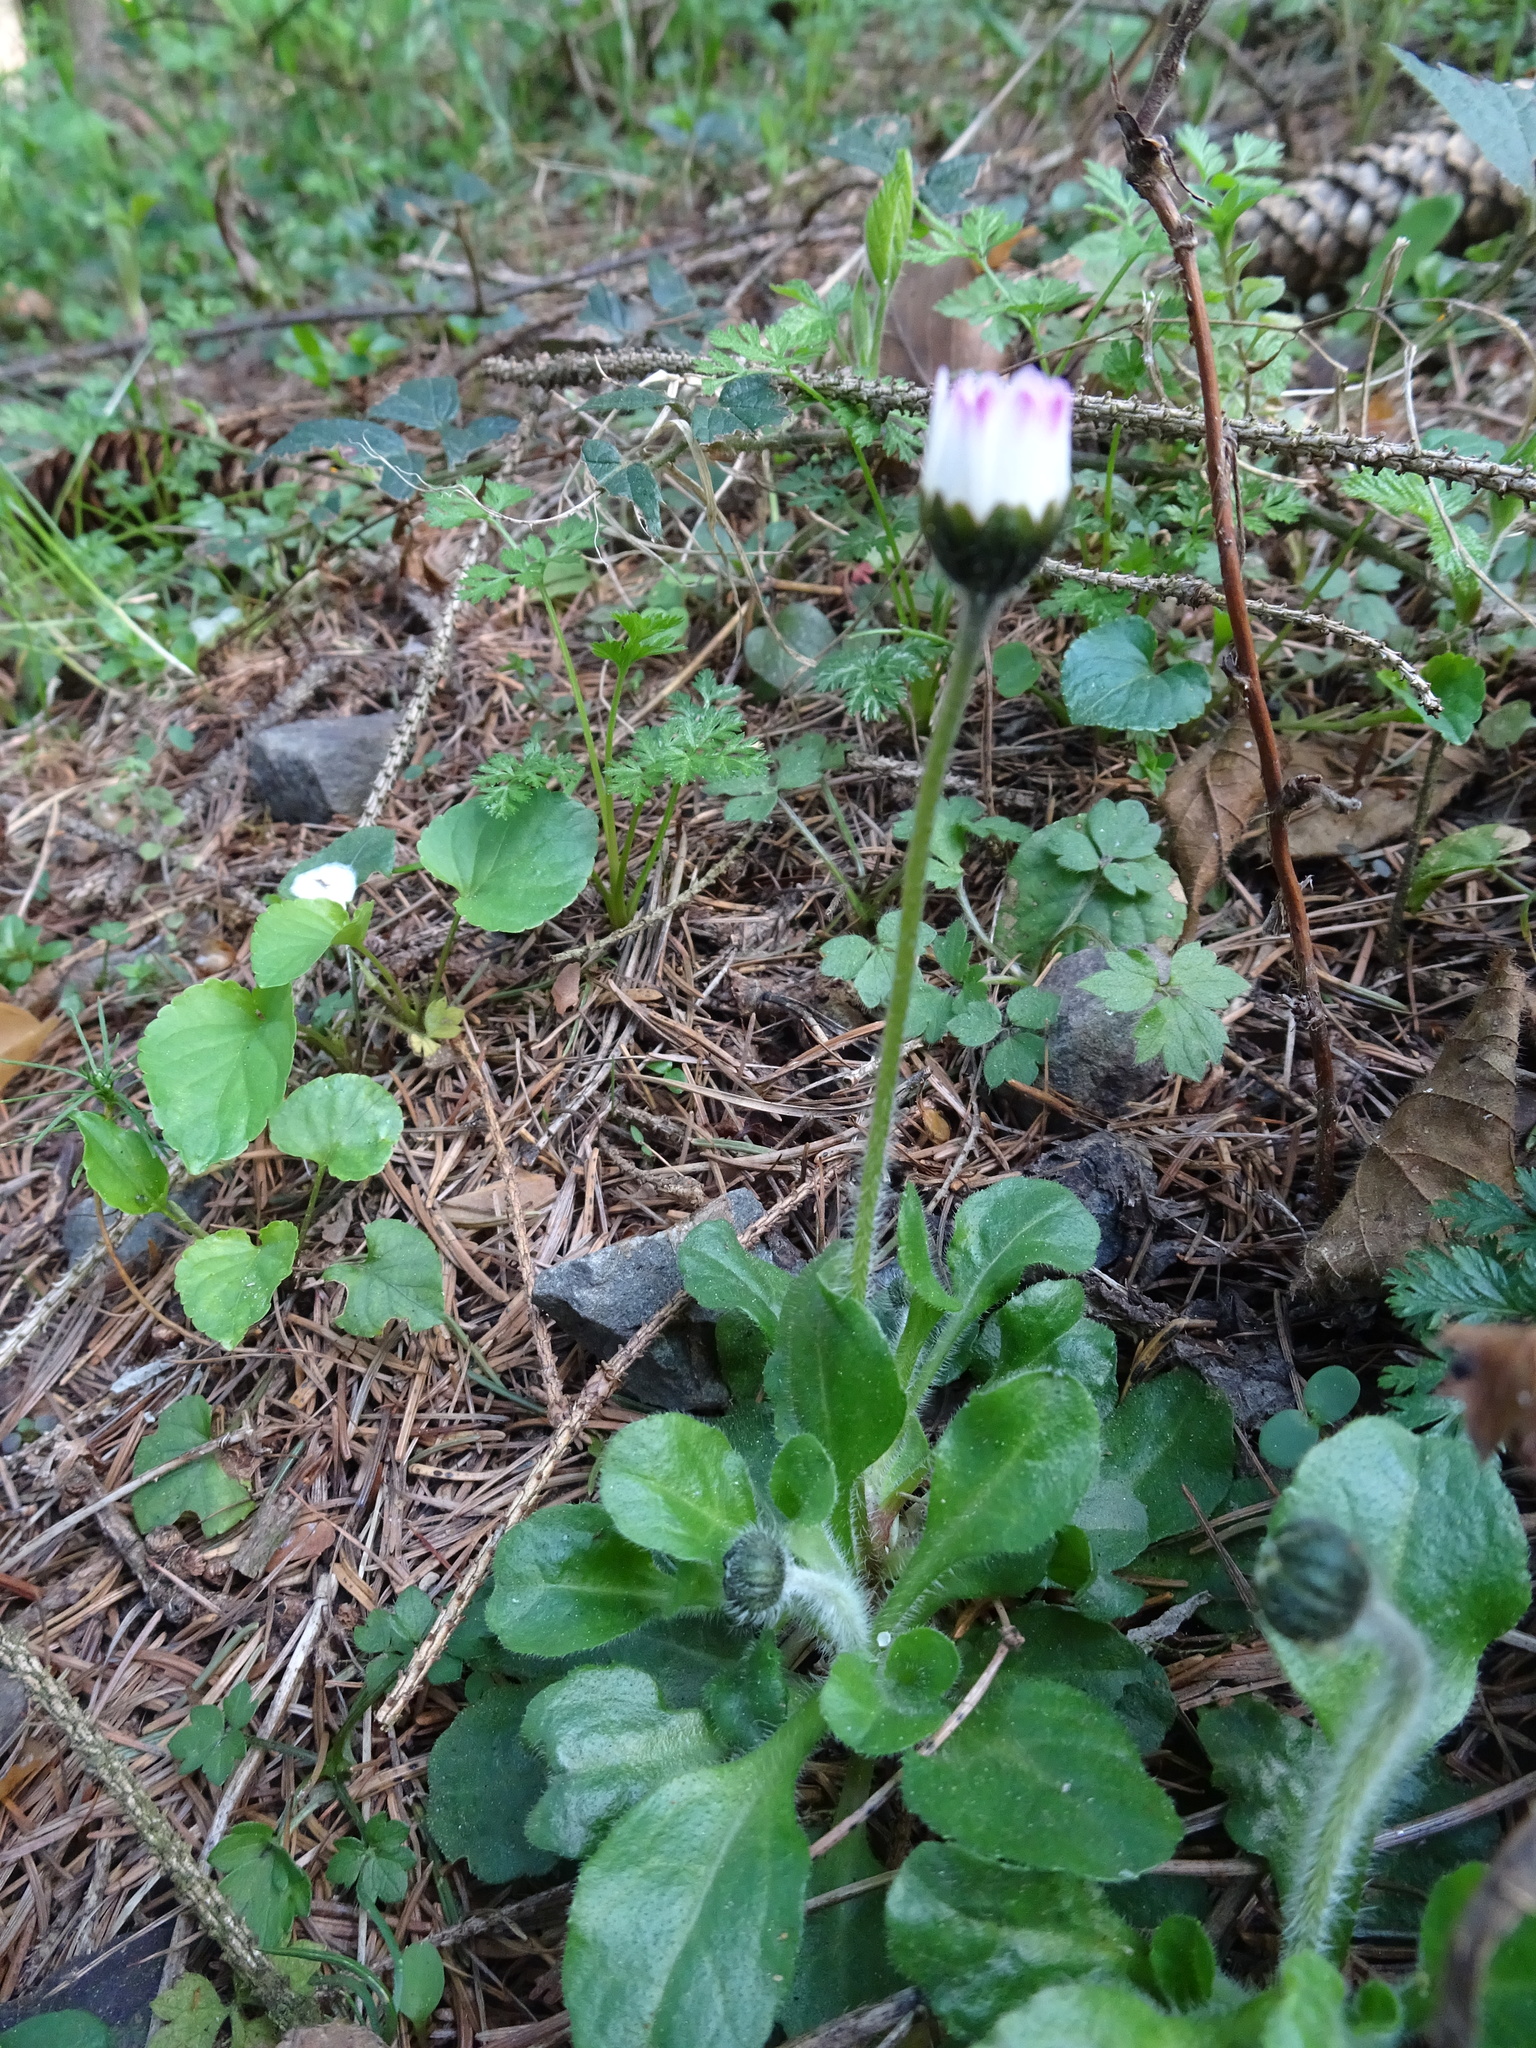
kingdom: Plantae
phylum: Tracheophyta
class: Magnoliopsida
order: Asterales
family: Asteraceae
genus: Bellis
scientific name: Bellis perennis
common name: Lawndaisy
